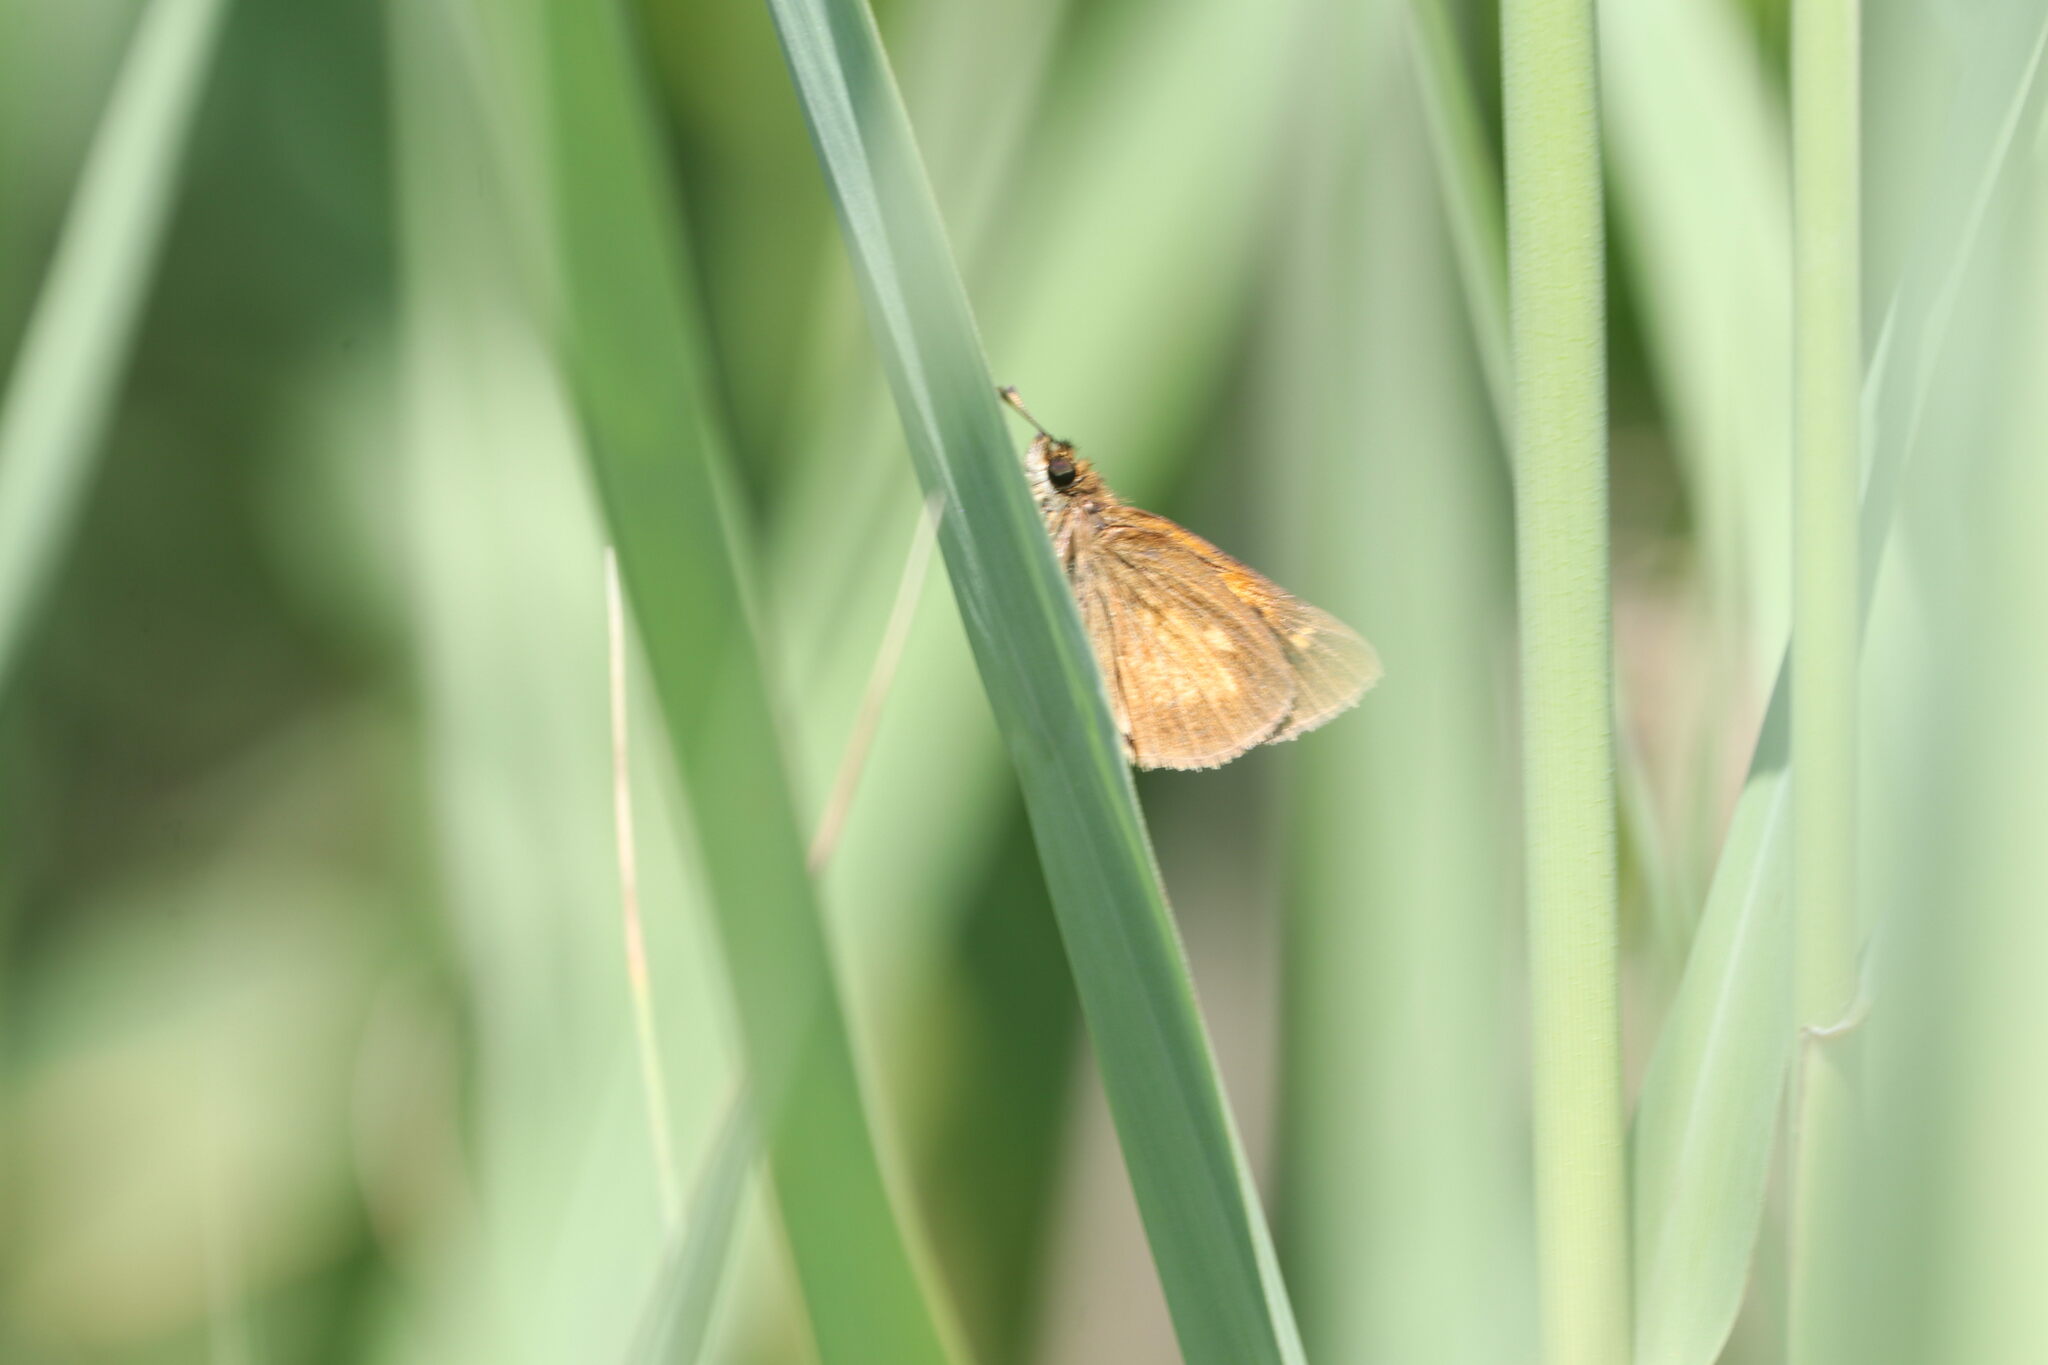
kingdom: Animalia
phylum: Arthropoda
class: Insecta
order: Lepidoptera
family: Hesperiidae
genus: Poanes
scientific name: Poanes viator
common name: Broad-winged skipper
